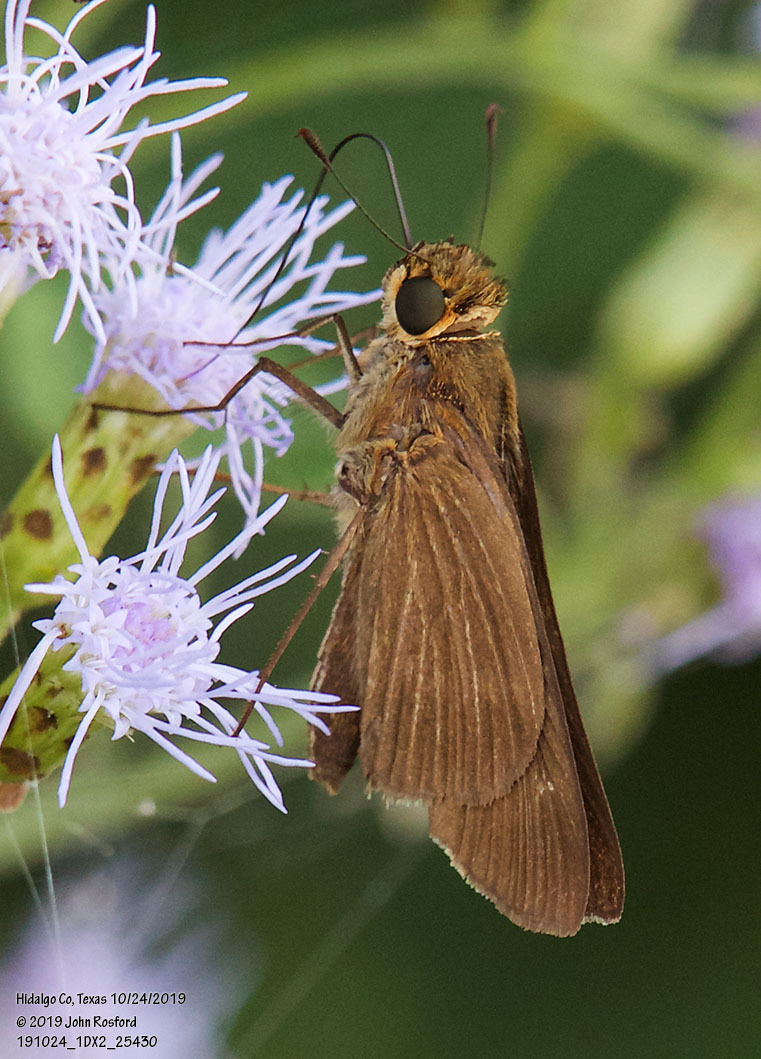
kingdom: Animalia
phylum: Arthropoda
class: Insecta
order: Lepidoptera
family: Hesperiidae
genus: Panoquina
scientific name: Panoquina ocola
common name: Ocola skipper
